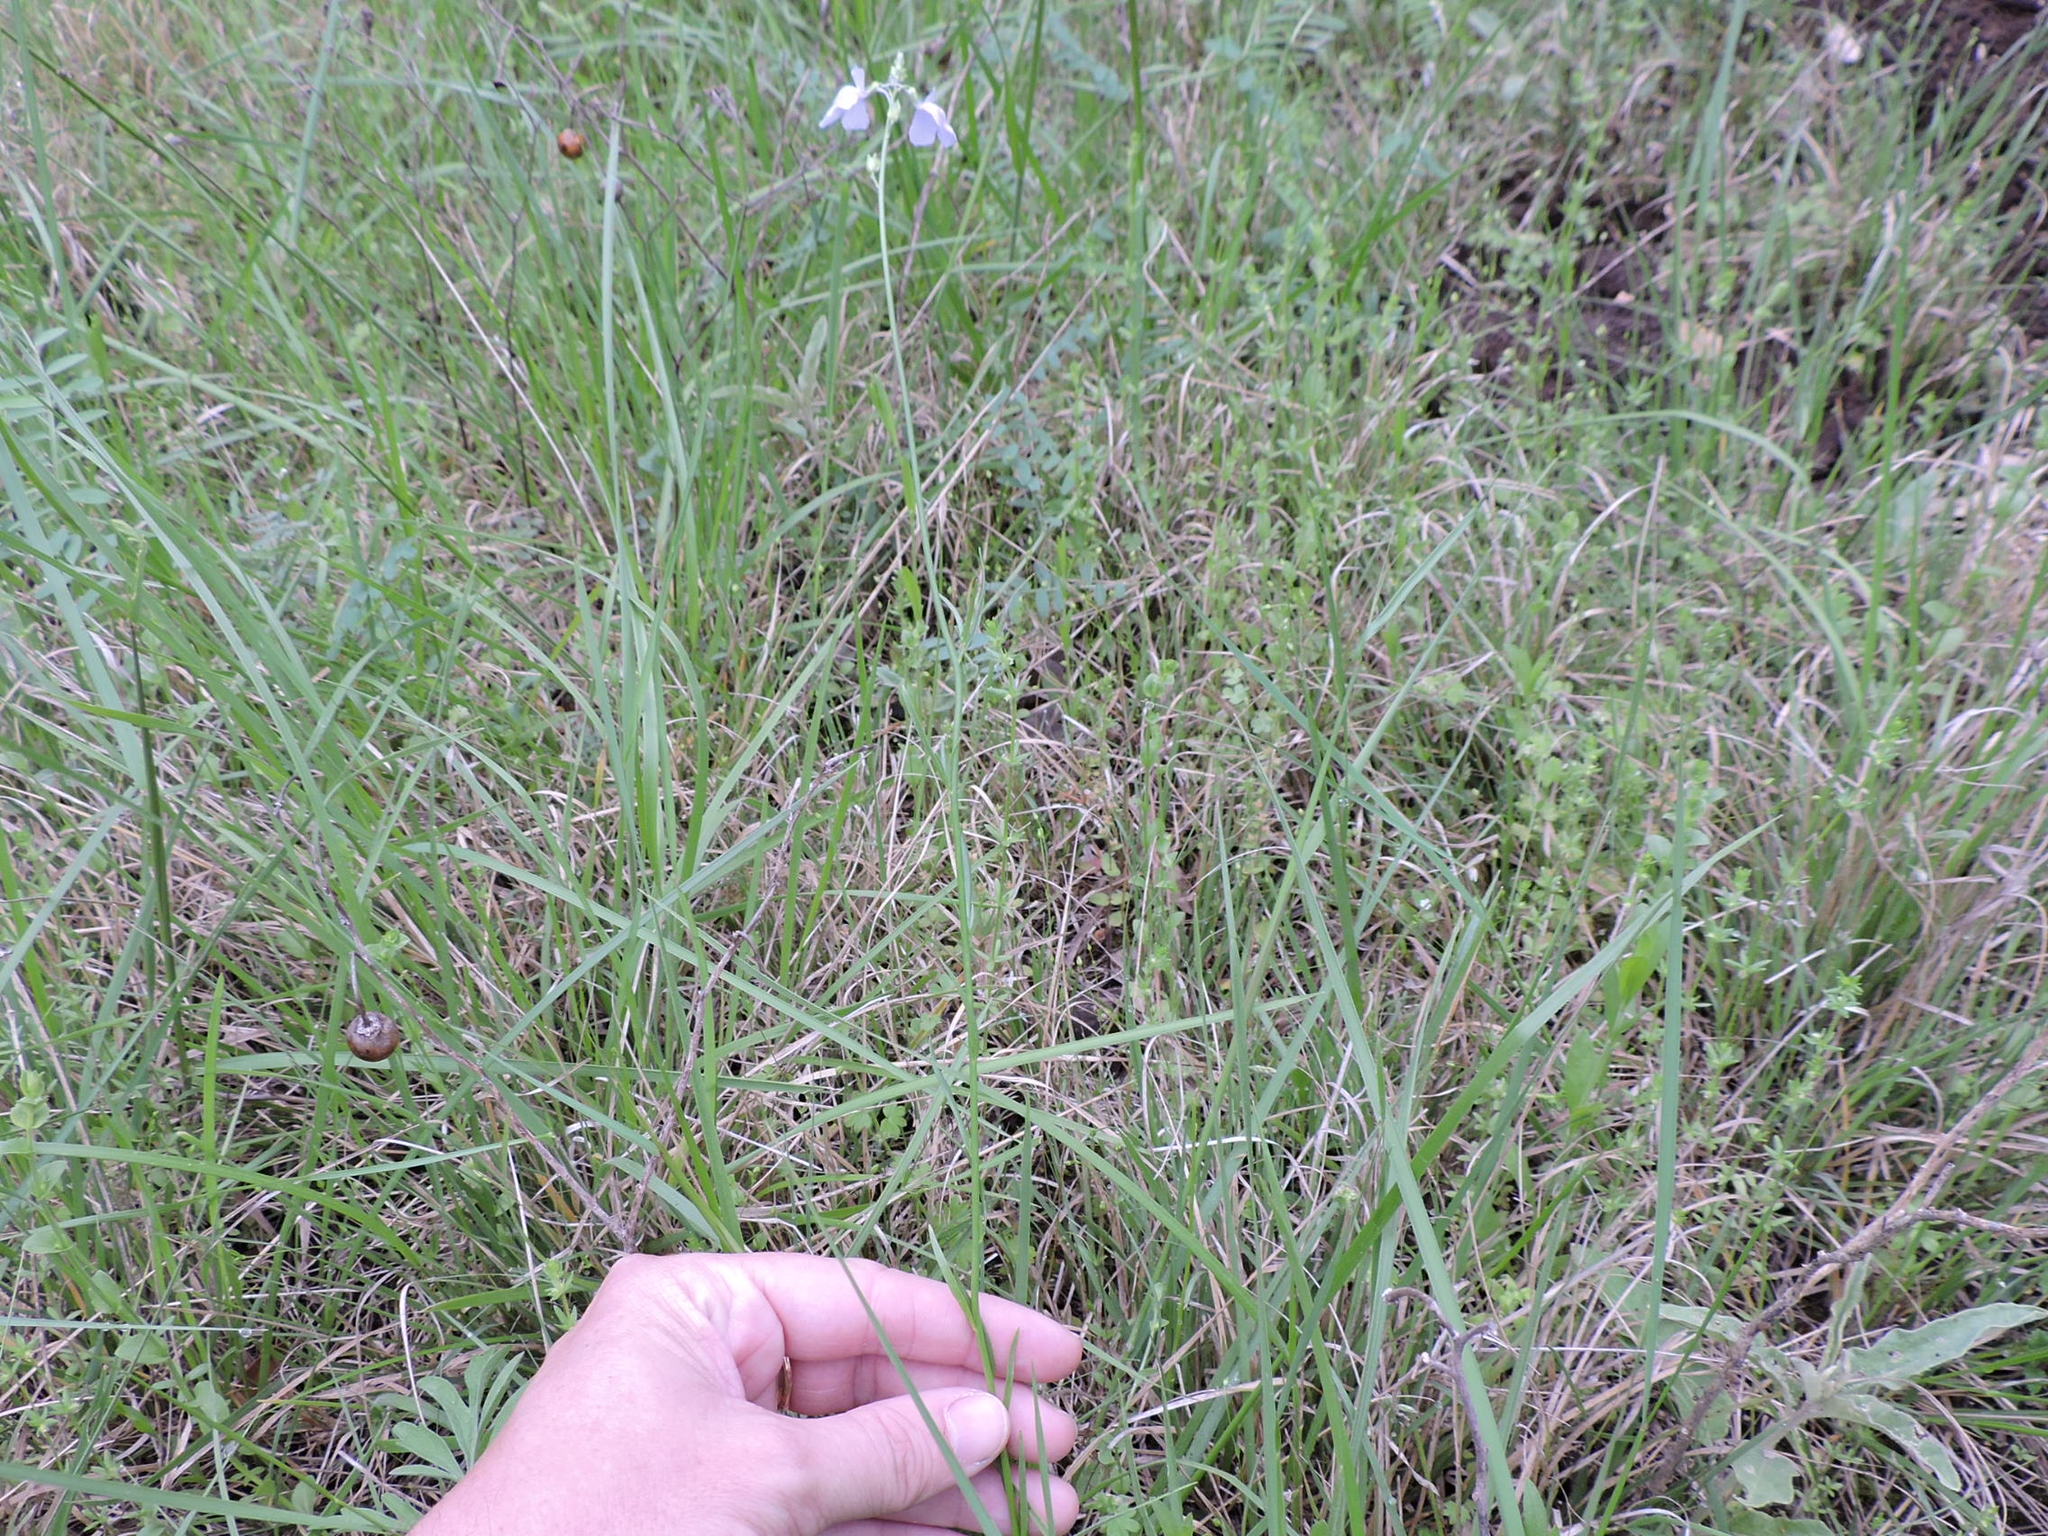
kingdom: Plantae
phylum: Tracheophyta
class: Magnoliopsida
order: Lamiales
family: Plantaginaceae
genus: Nuttallanthus
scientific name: Nuttallanthus texanus
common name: Texas toadflax
